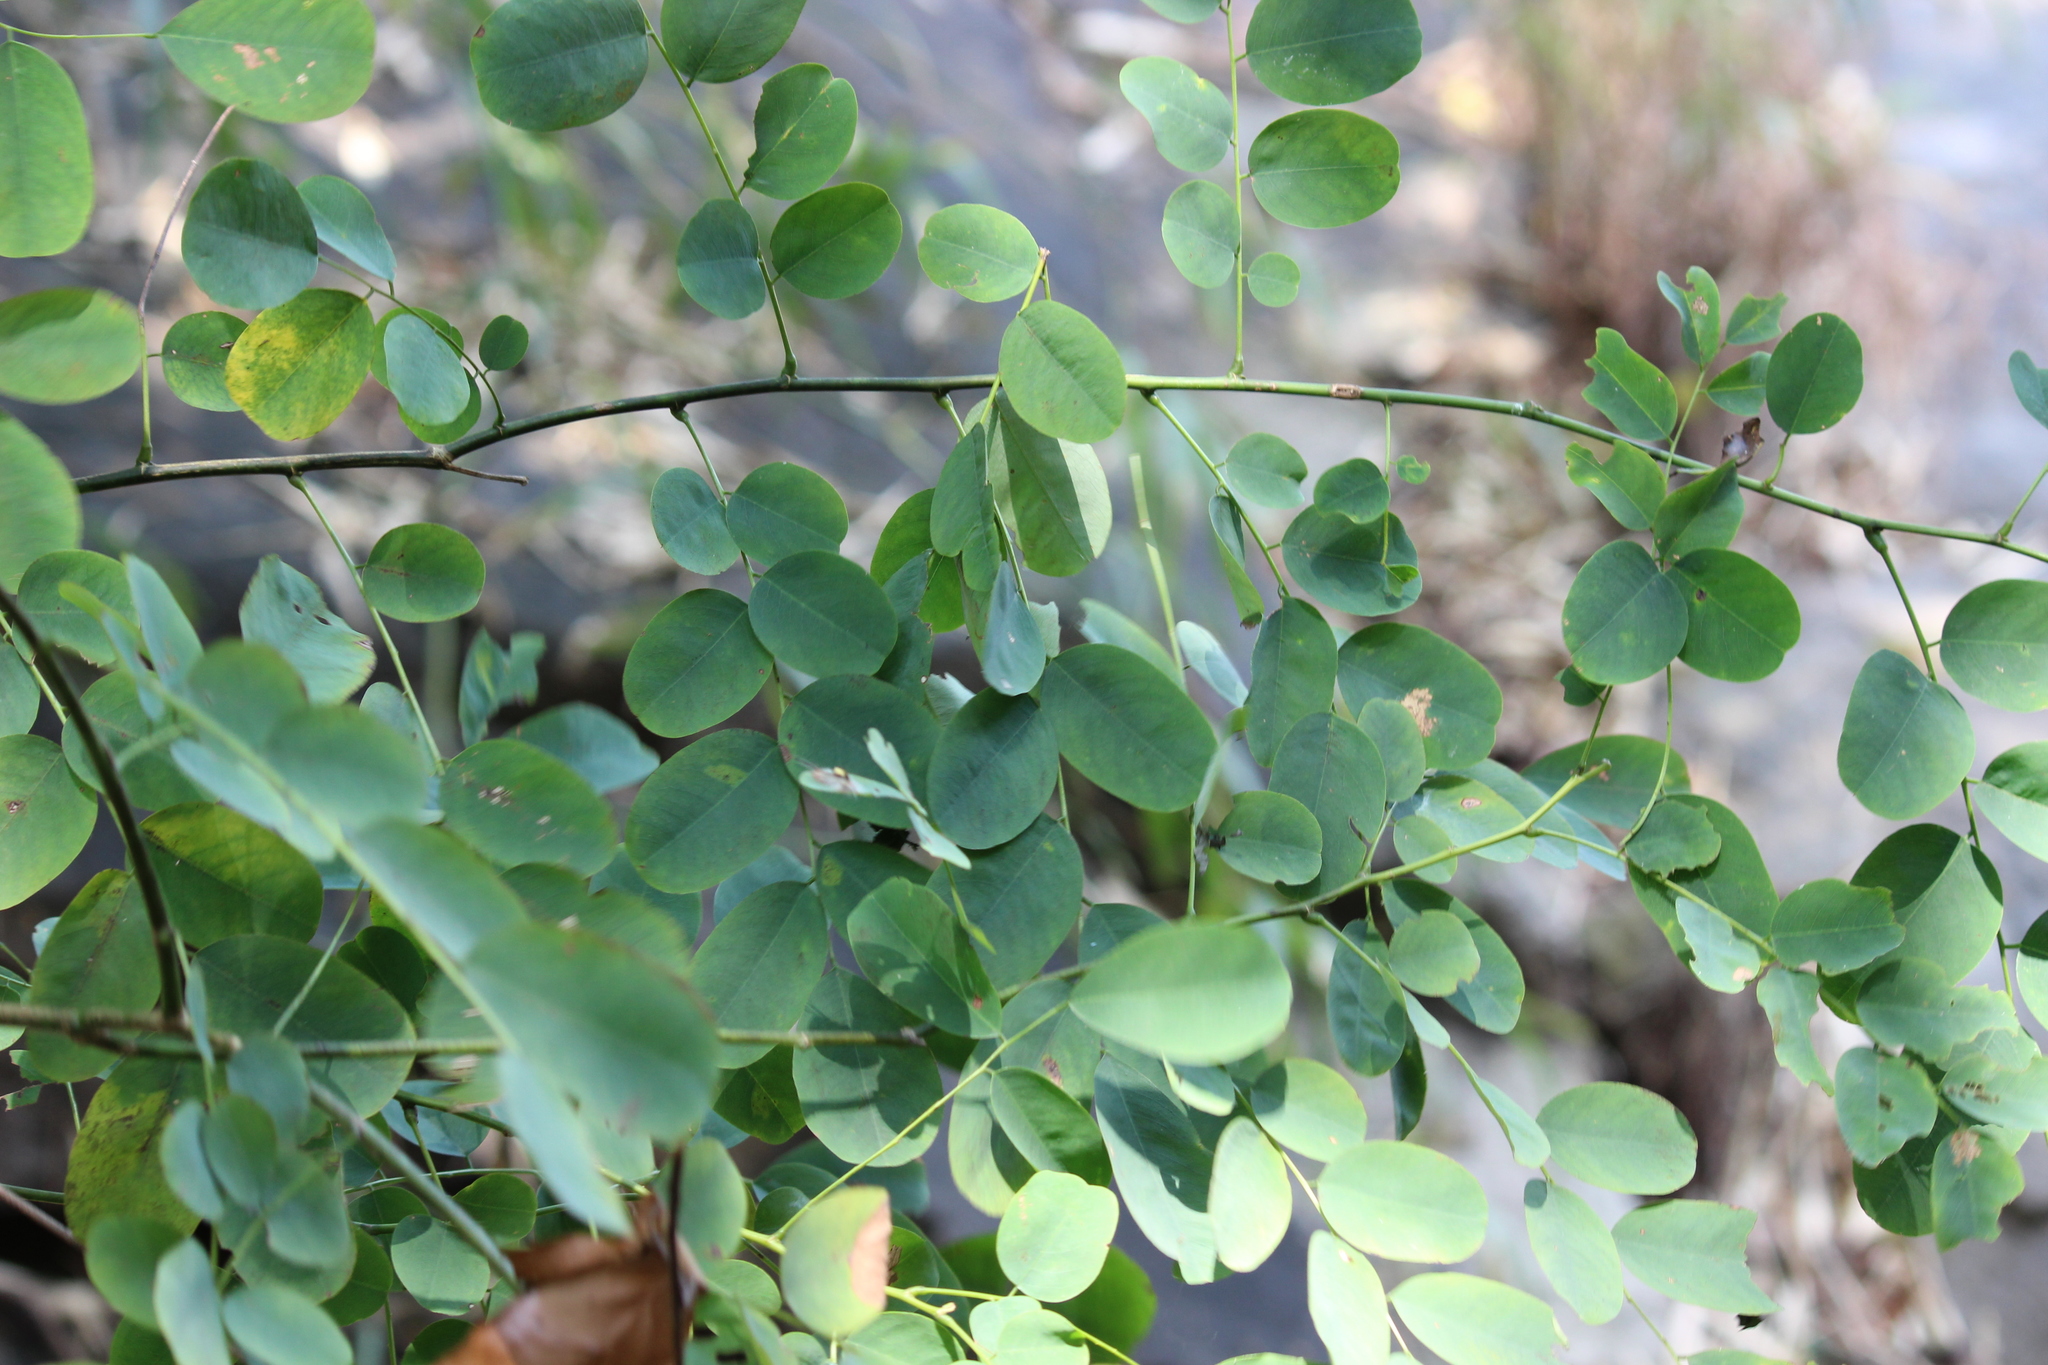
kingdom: Plantae
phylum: Tracheophyta
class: Magnoliopsida
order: Fabales
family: Fabaceae
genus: Dalbergia
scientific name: Dalbergia lanceolaria
